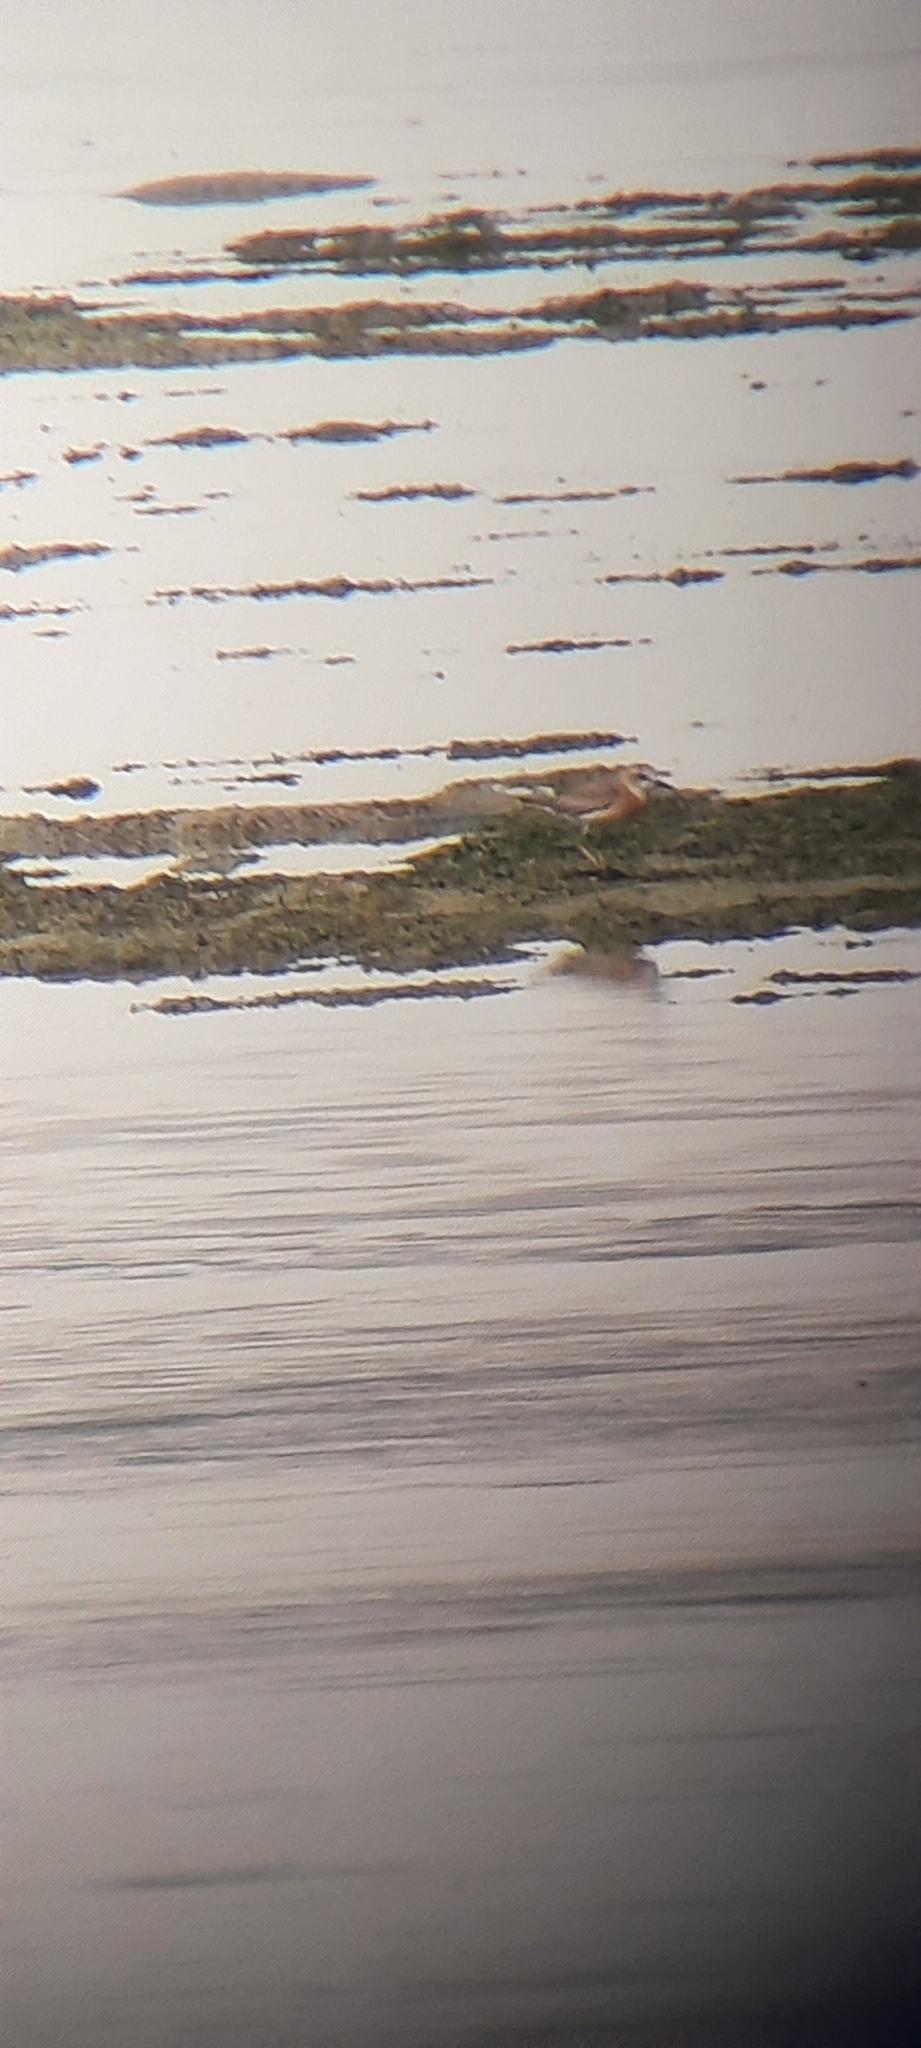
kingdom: Animalia
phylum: Chordata
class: Aves
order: Charadriiformes
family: Charadriidae
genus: Charadrius
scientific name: Charadrius leschenaultii
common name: Greater sand plover
